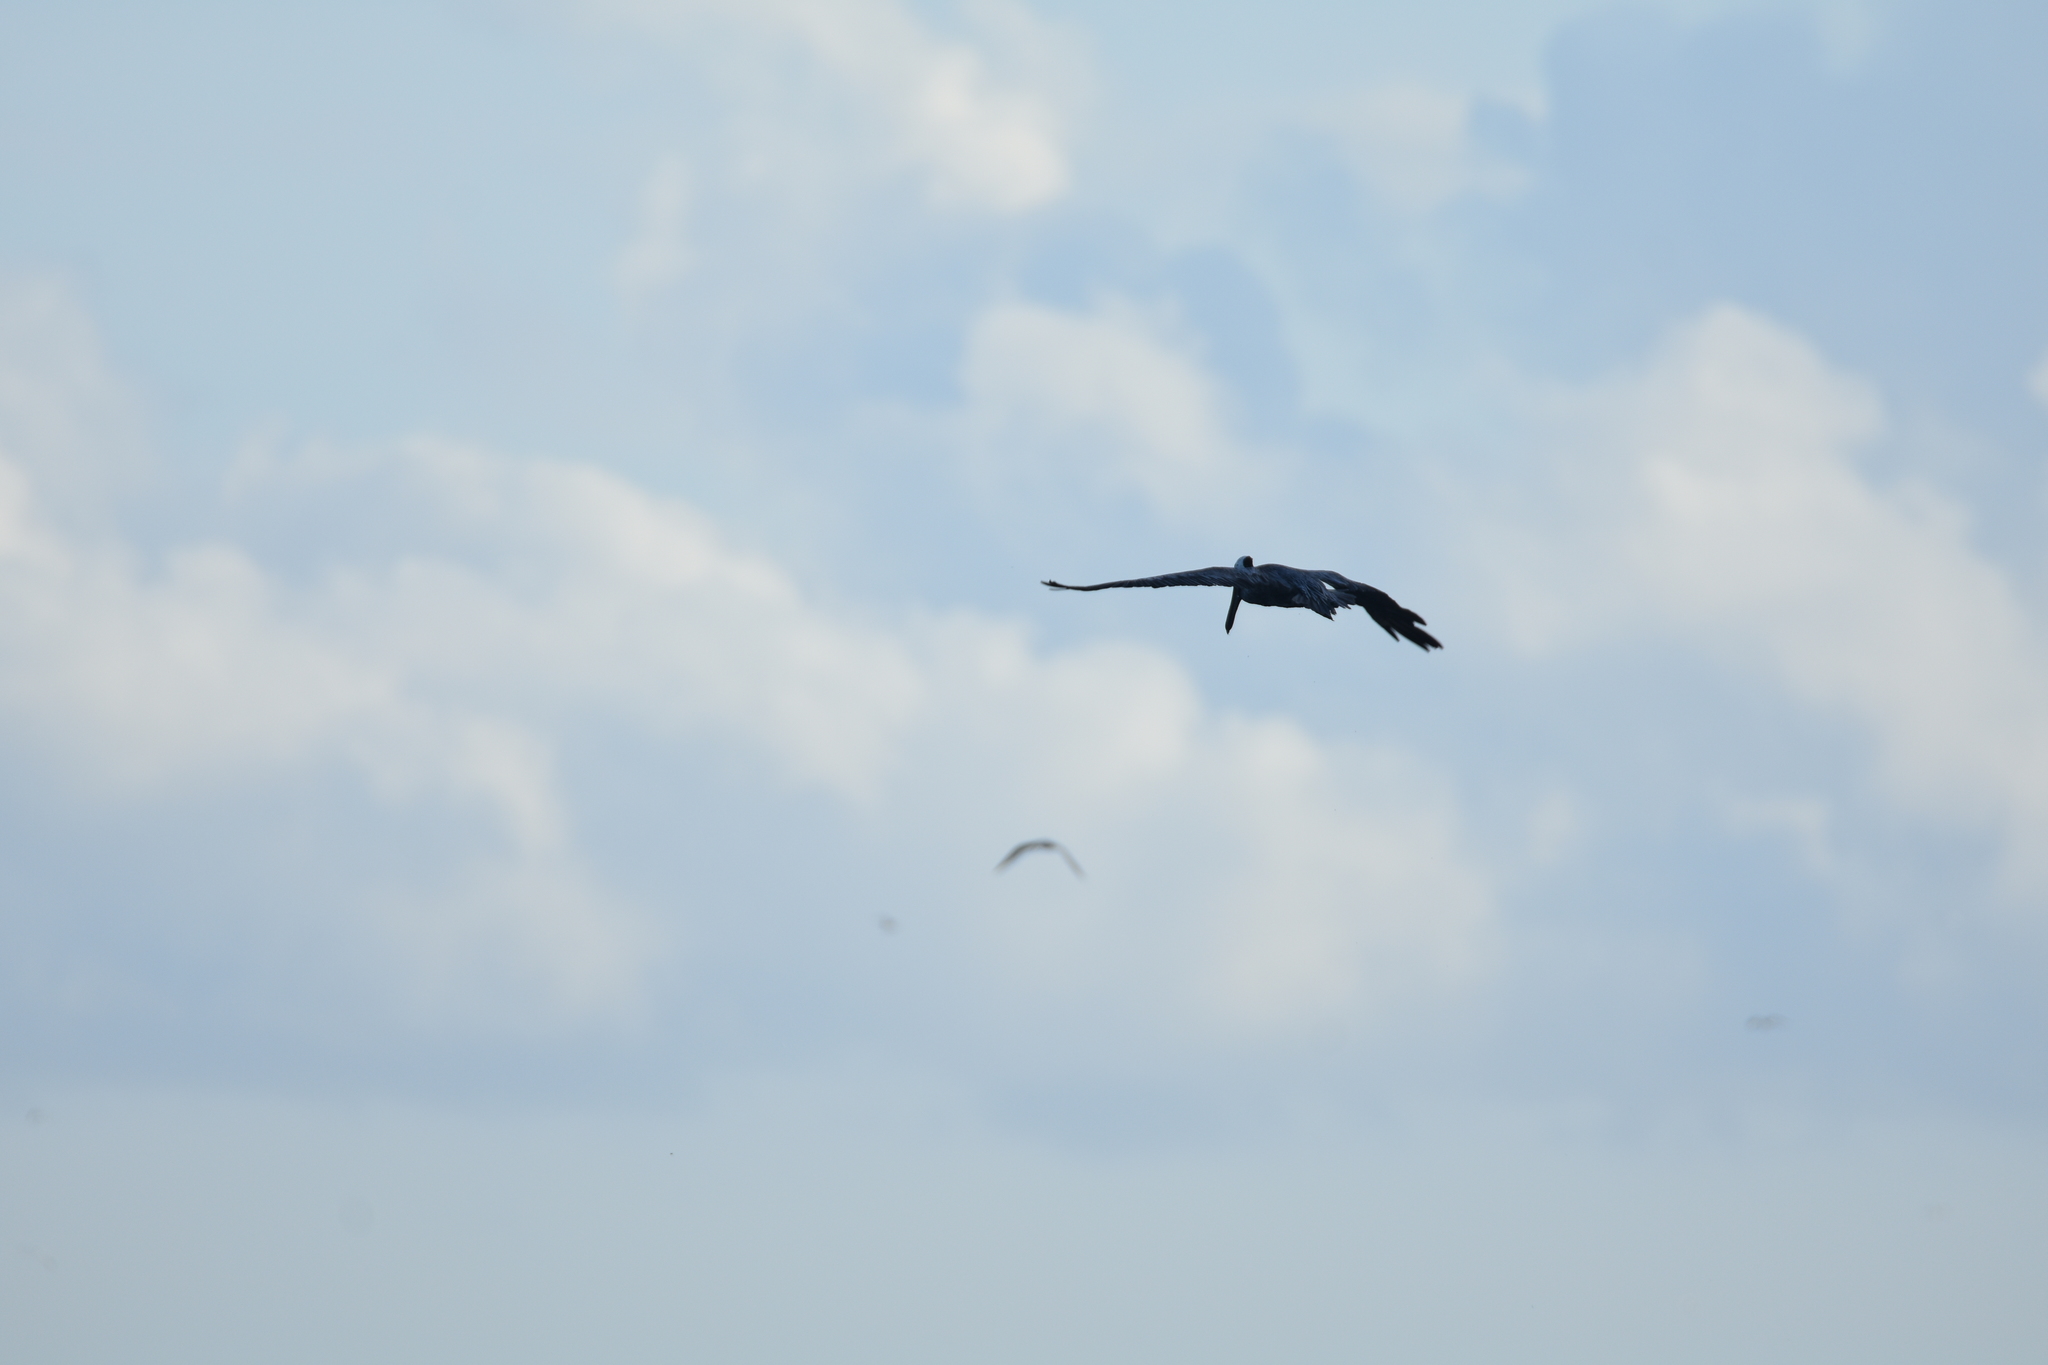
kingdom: Animalia
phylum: Chordata
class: Aves
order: Pelecaniformes
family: Pelecanidae
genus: Pelecanus
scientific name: Pelecanus occidentalis
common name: Brown pelican
